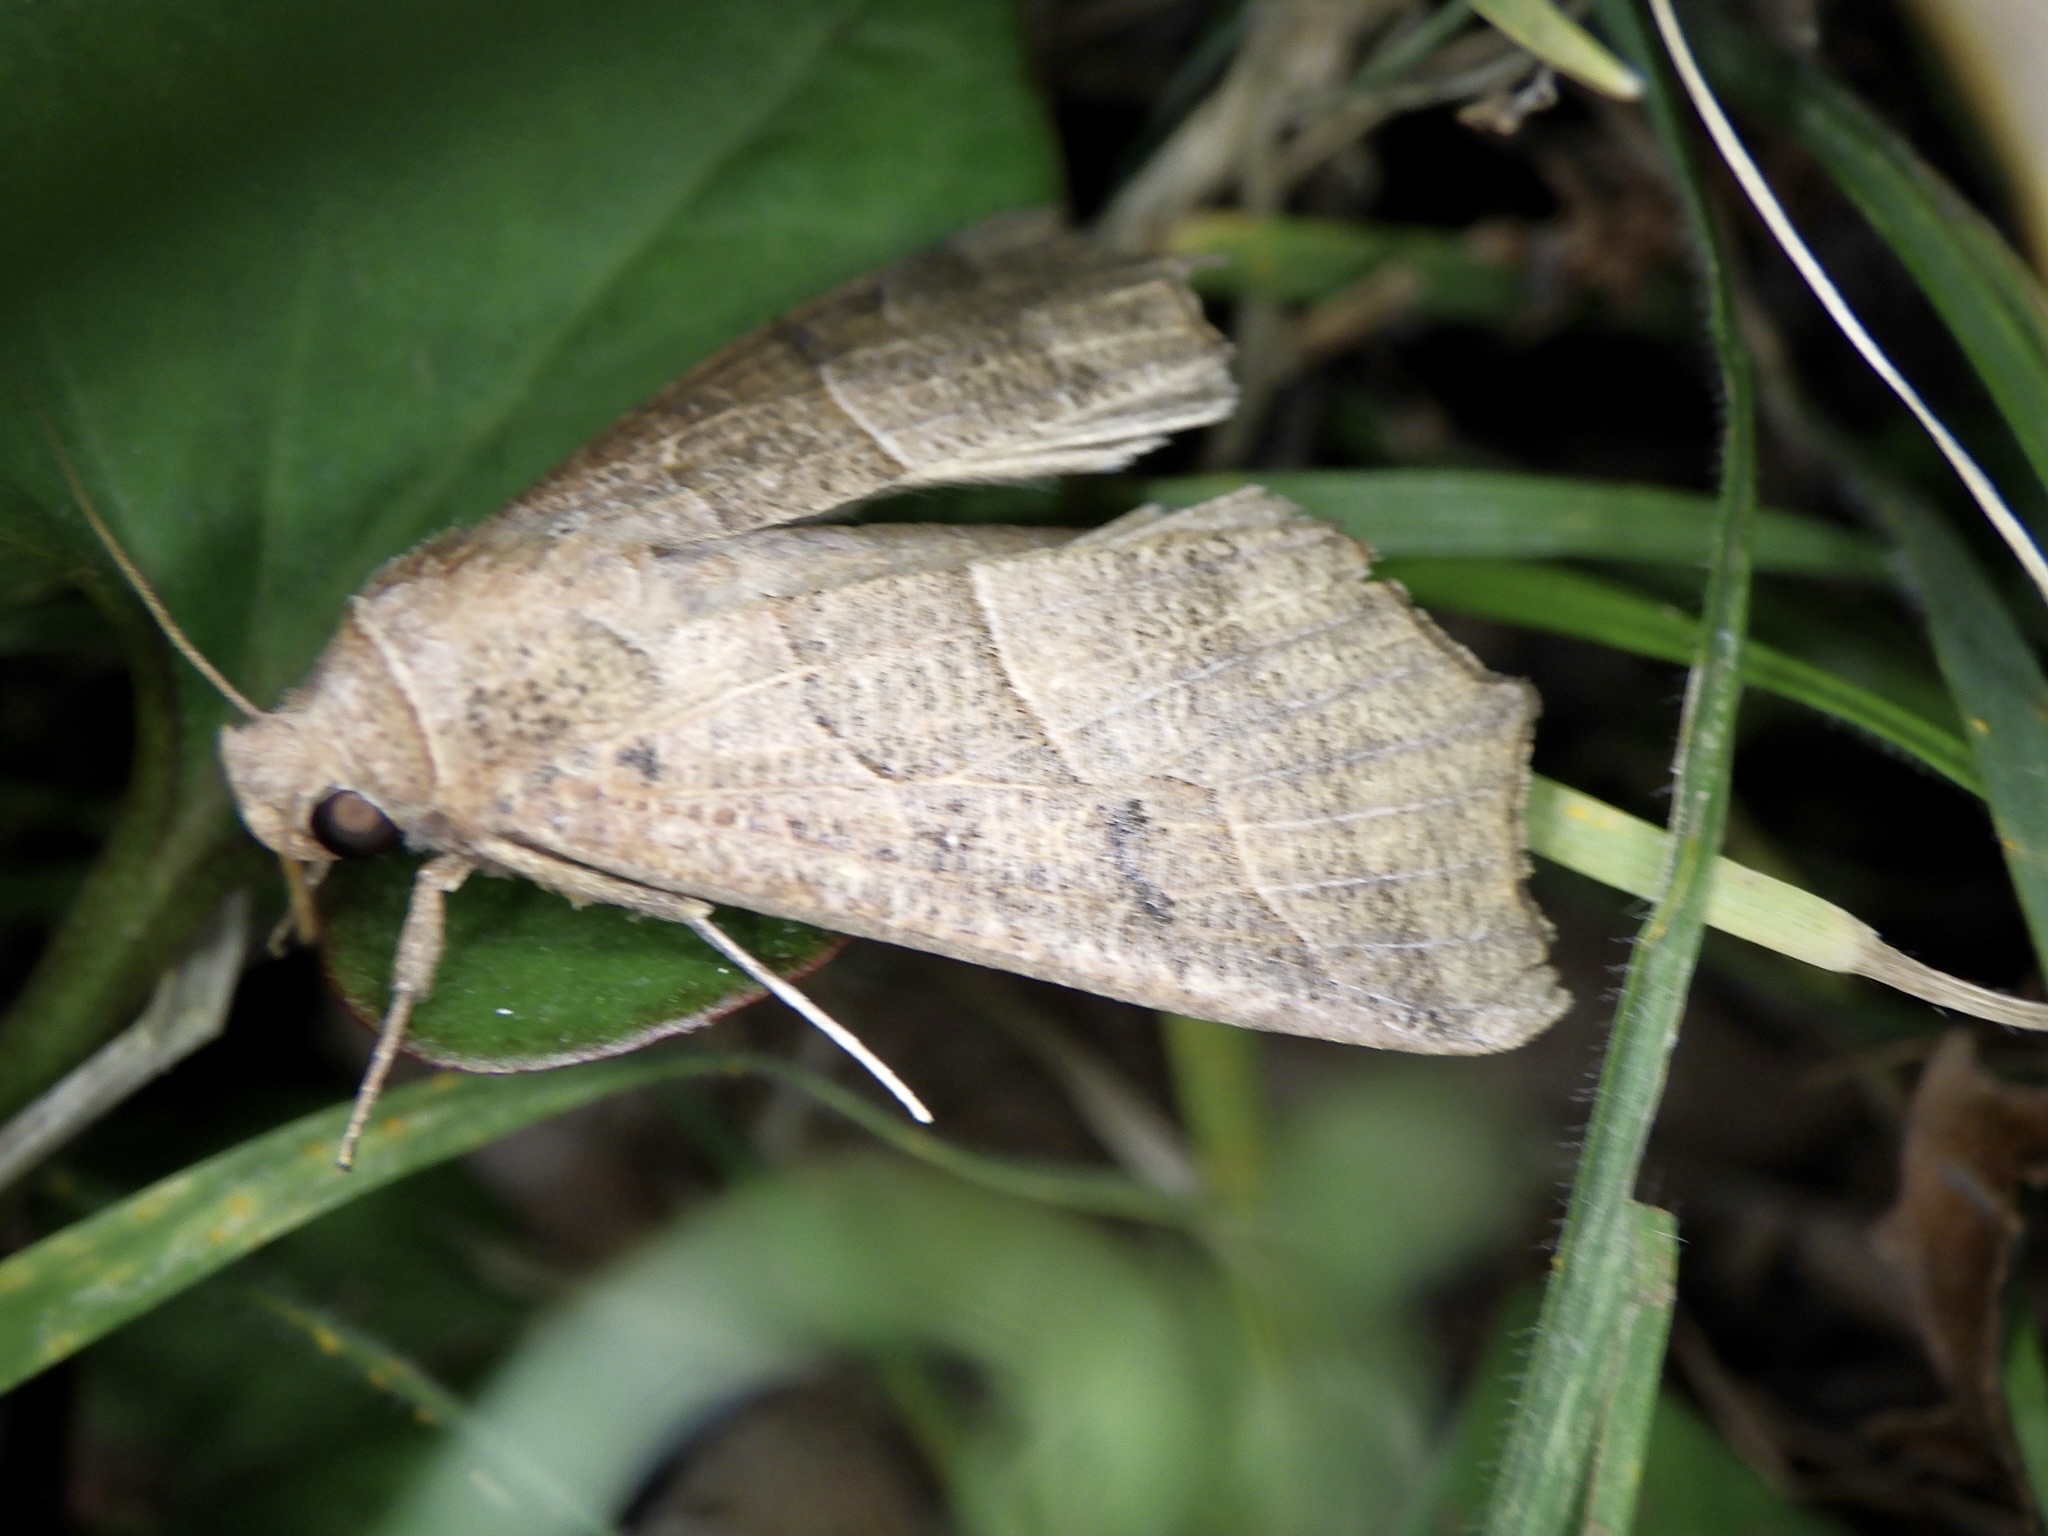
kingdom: Animalia
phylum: Arthropoda
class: Insecta
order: Lepidoptera
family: Erebidae
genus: Gonitis
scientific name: Gonitis mesogona
